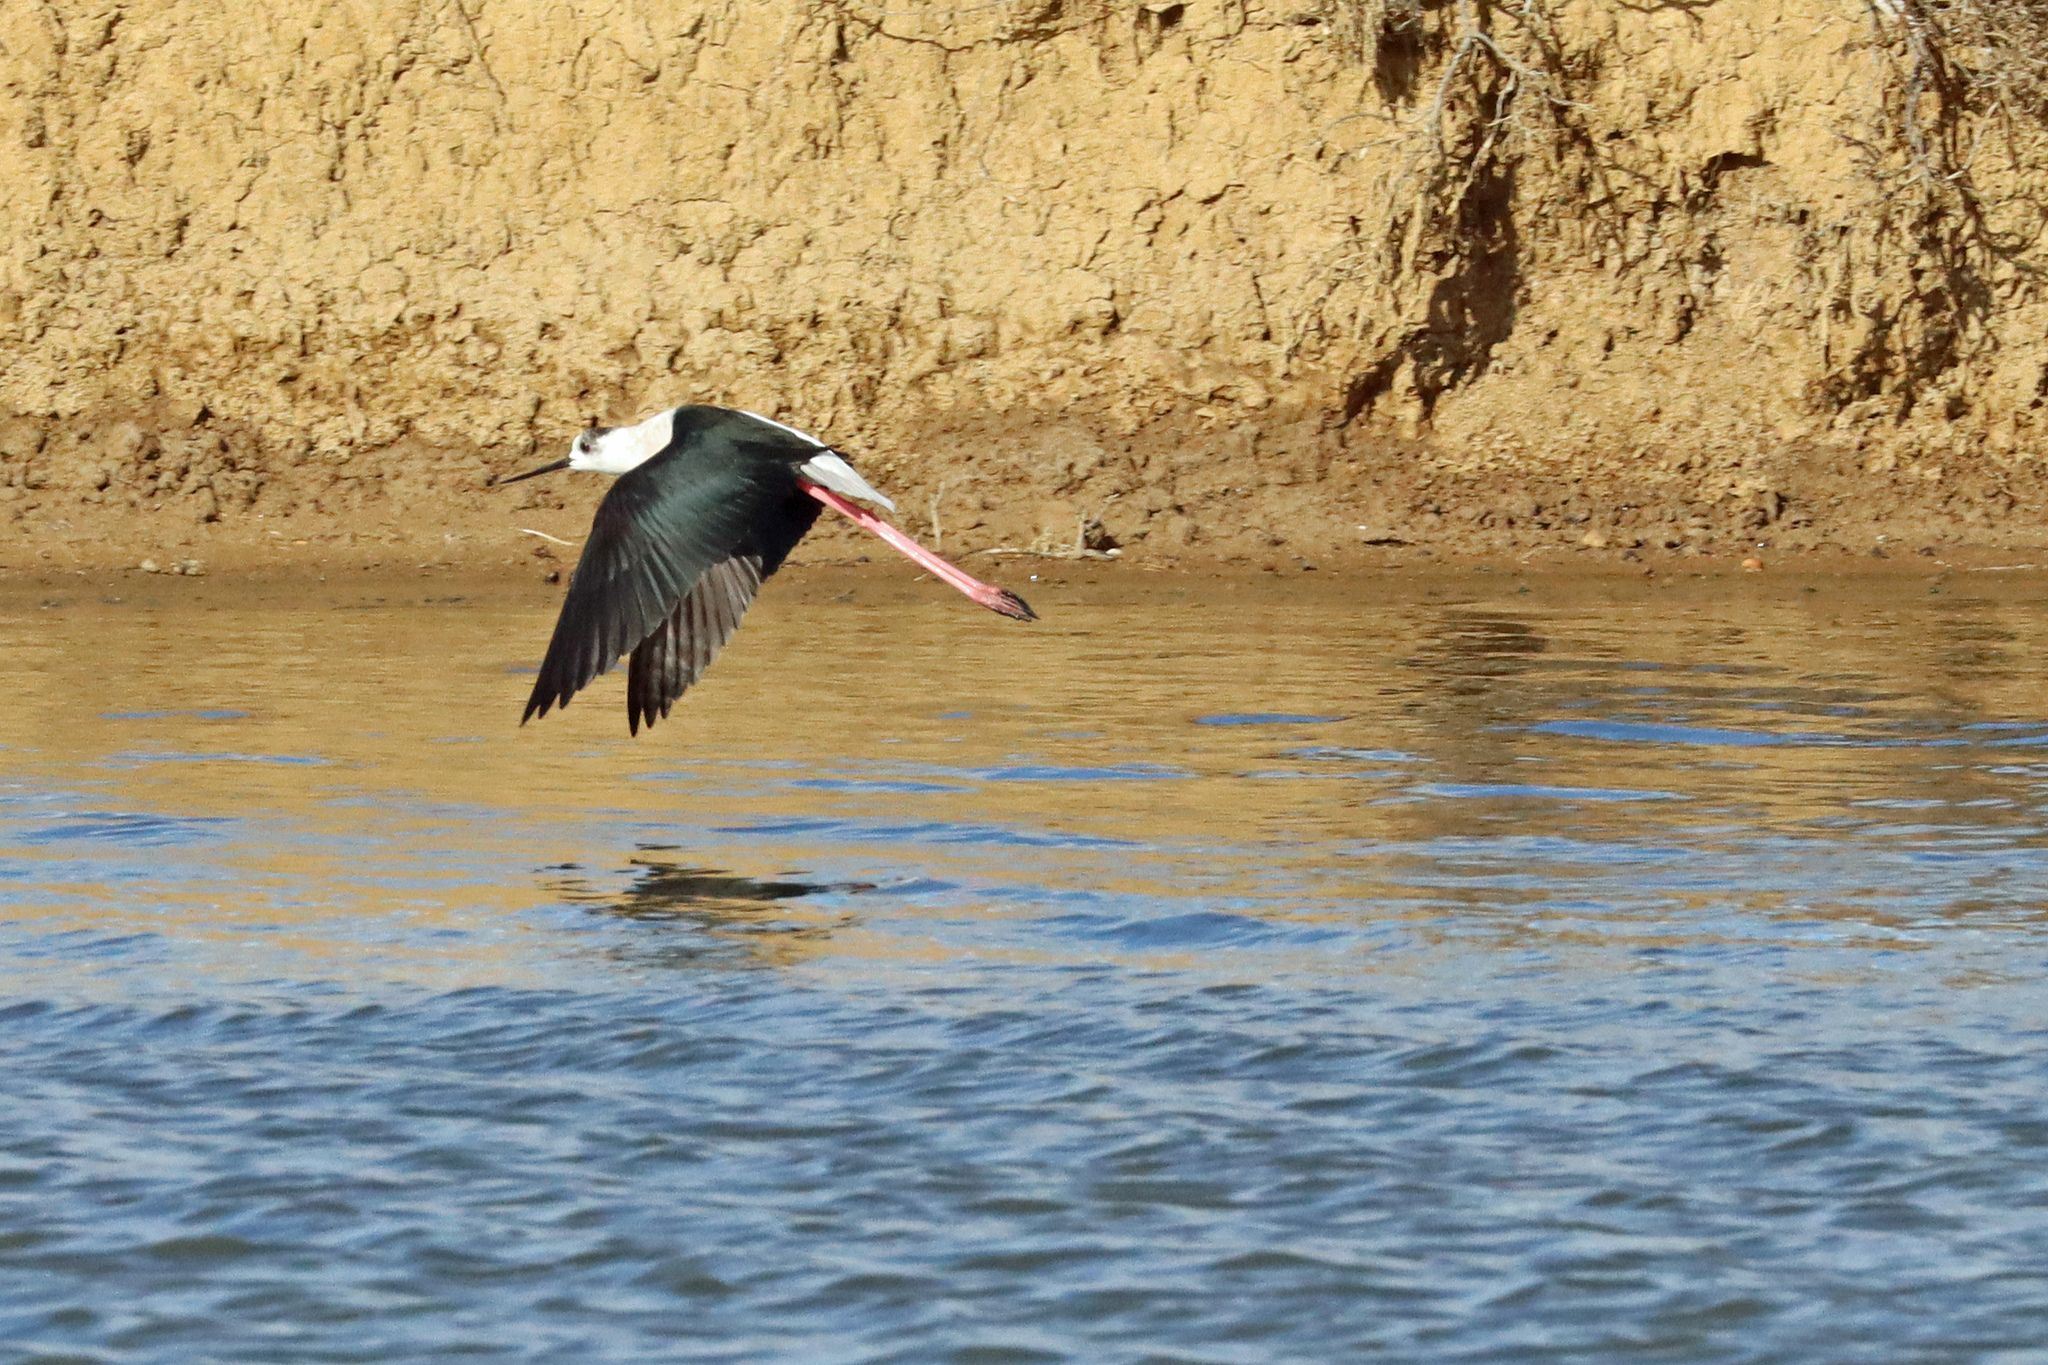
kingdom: Animalia
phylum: Chordata
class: Aves
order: Charadriiformes
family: Recurvirostridae
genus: Himantopus
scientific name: Himantopus himantopus
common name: Black-winged stilt
